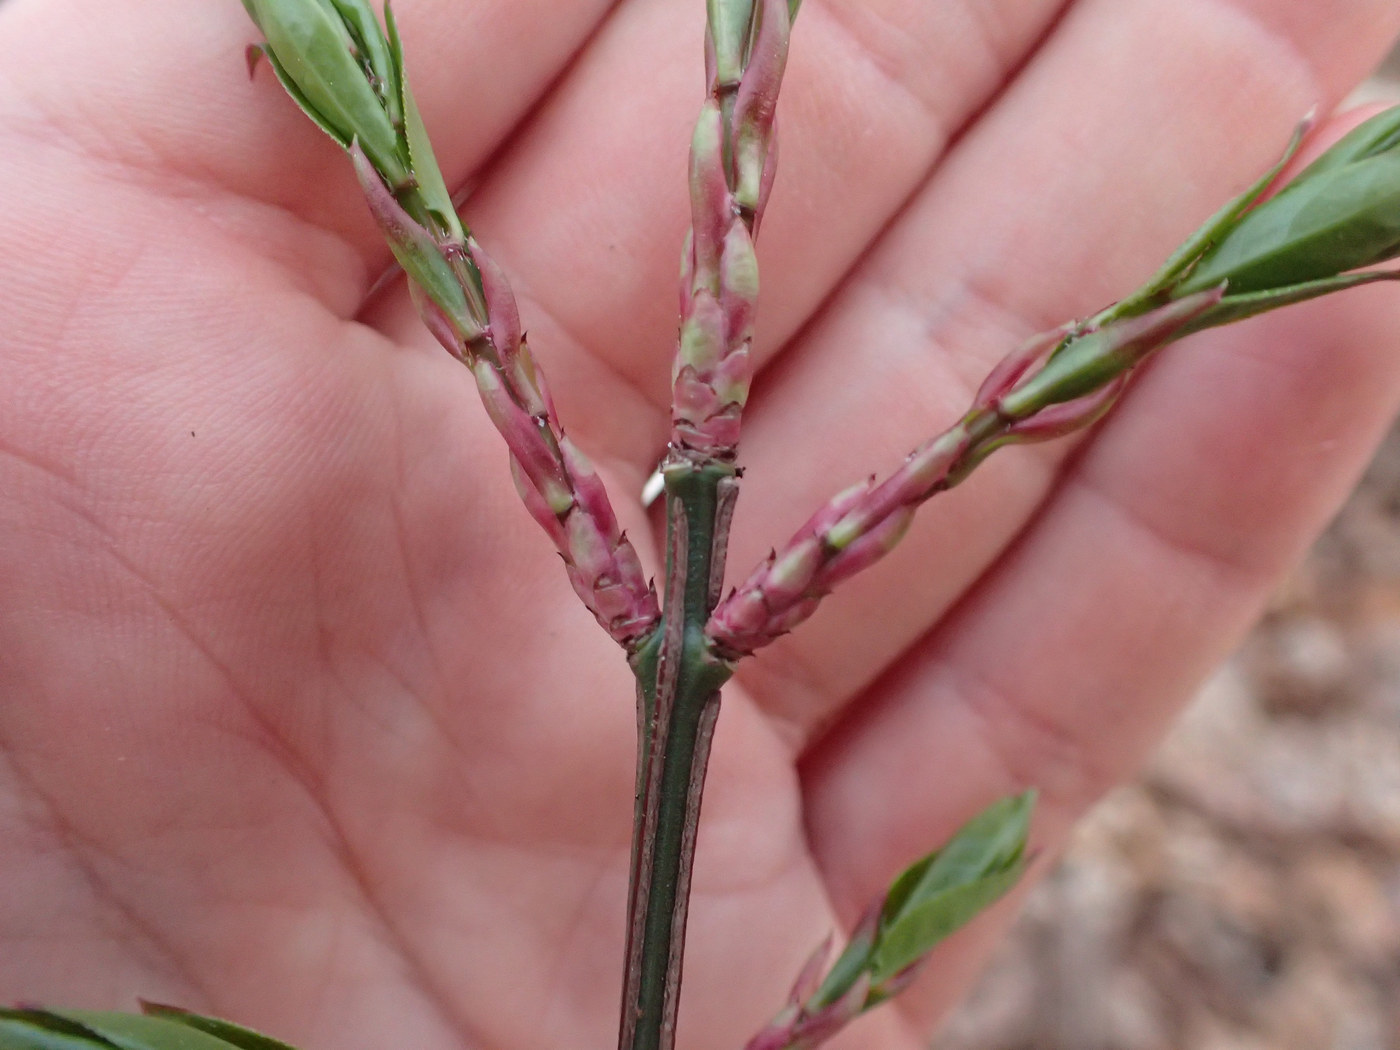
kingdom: Plantae
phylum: Tracheophyta
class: Magnoliopsida
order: Celastrales
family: Celastraceae
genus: Euonymus
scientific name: Euonymus alatus
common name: Winged euonymus
